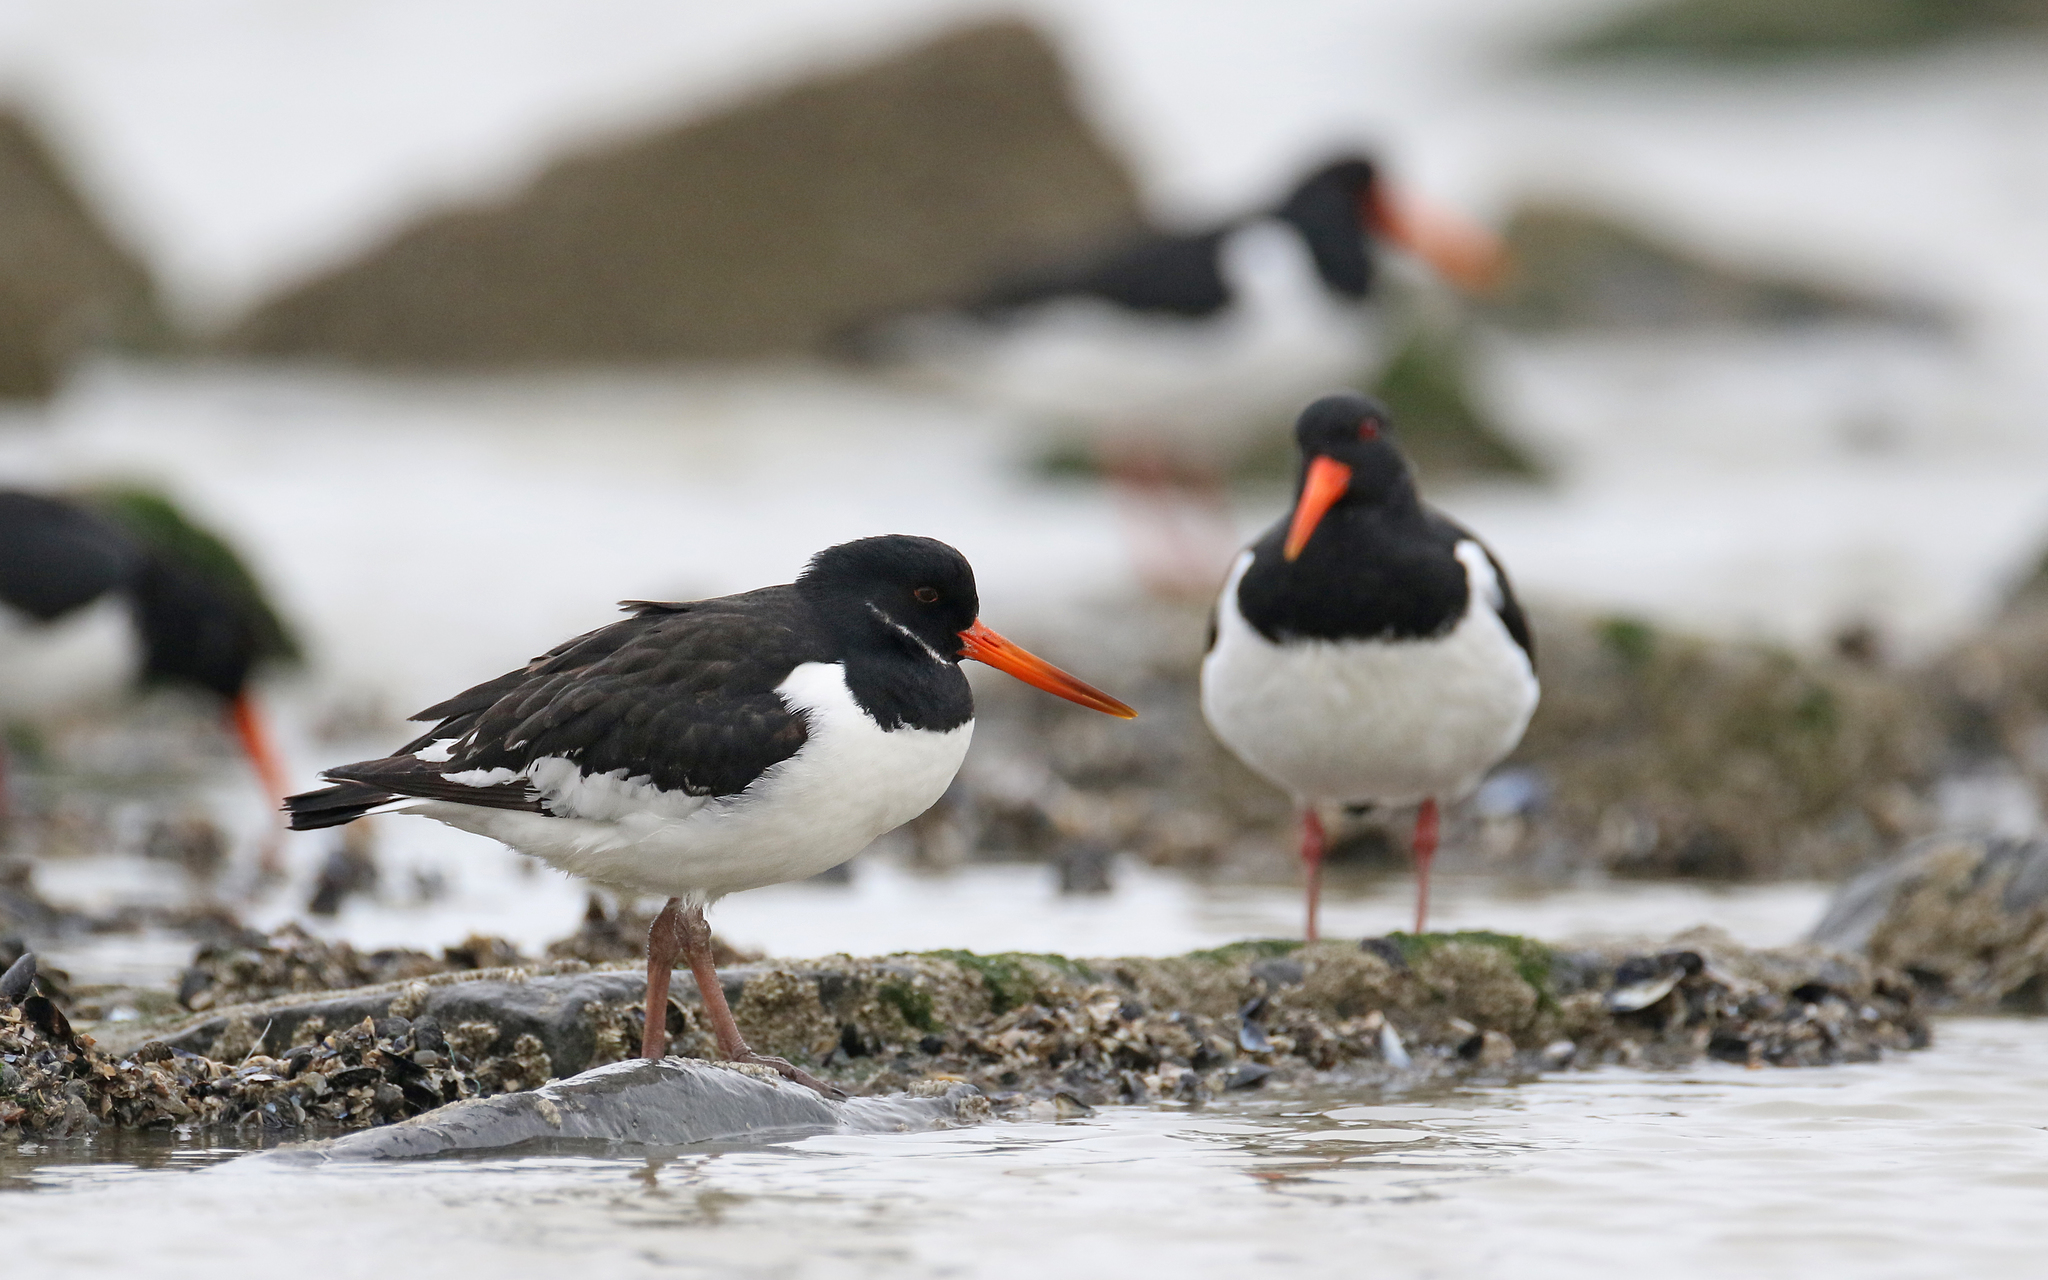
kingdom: Animalia
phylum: Chordata
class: Aves
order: Charadriiformes
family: Haematopodidae
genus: Haematopus
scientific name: Haematopus ostralegus
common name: Eurasian oystercatcher
